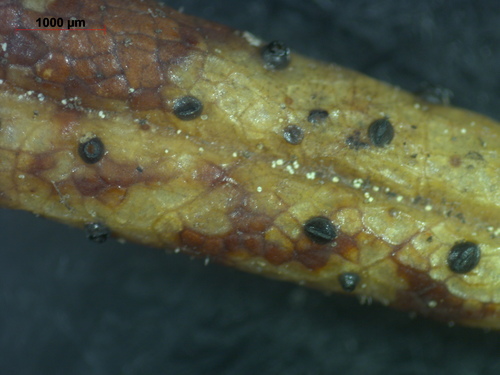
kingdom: Fungi
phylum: Ascomycota
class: Leotiomycetes
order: Rhytismatales
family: Rhytismataceae
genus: Lophodermium
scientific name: Lophodermium
